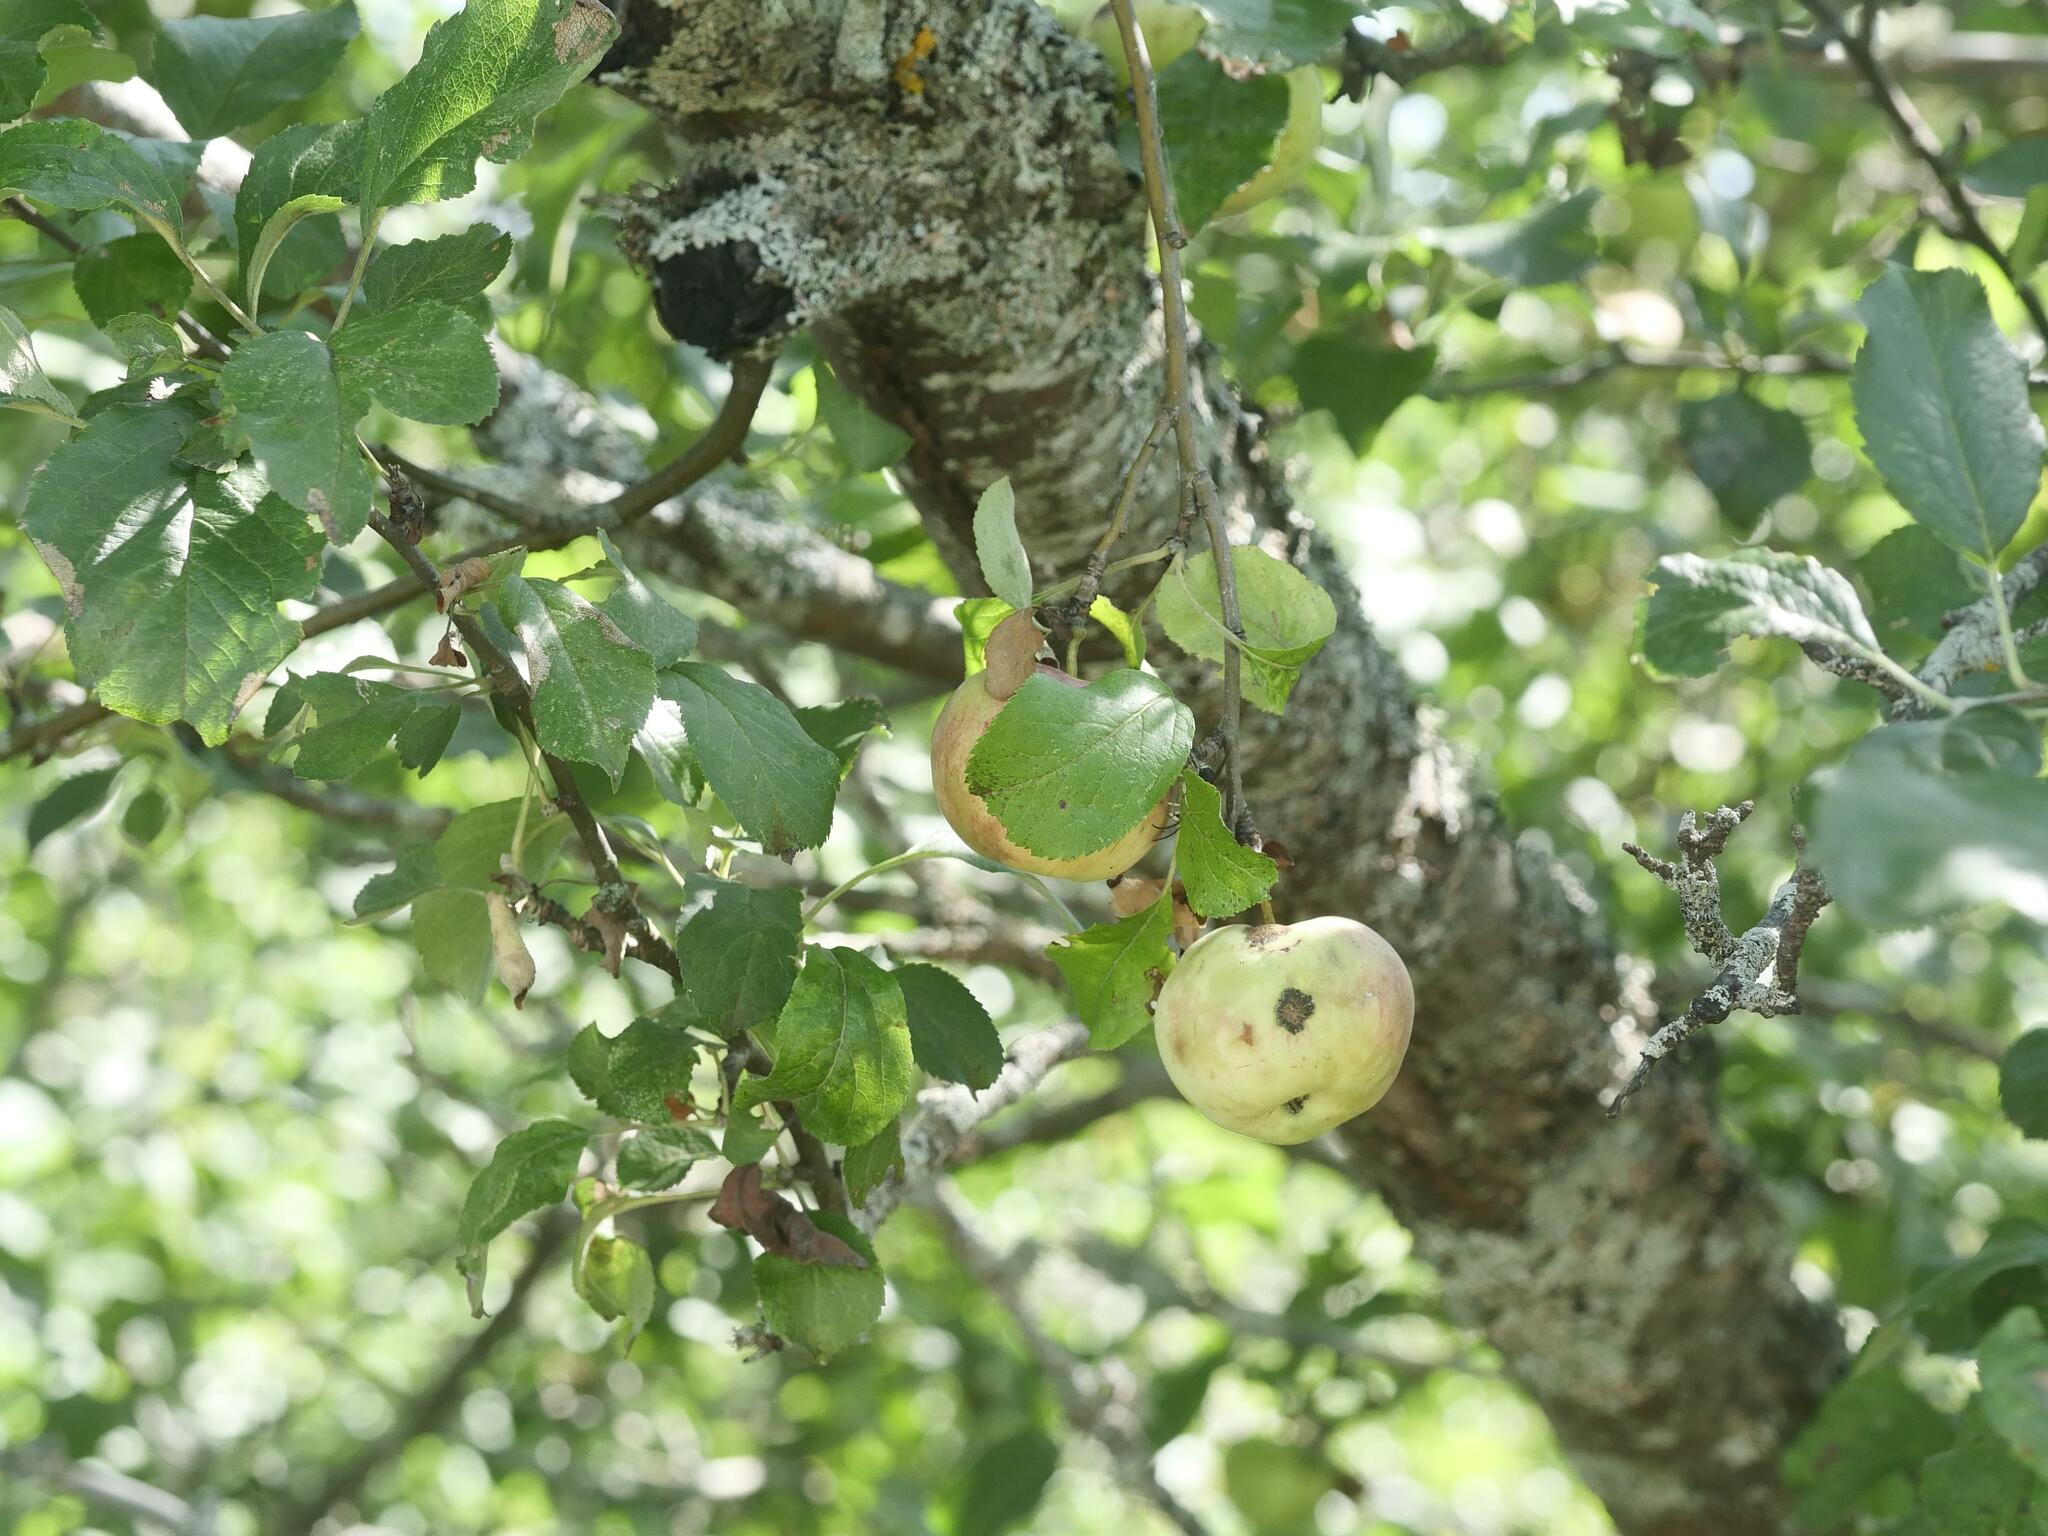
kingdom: Plantae
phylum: Tracheophyta
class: Magnoliopsida
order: Rosales
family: Rosaceae
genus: Malus
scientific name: Malus domestica
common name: Apple
